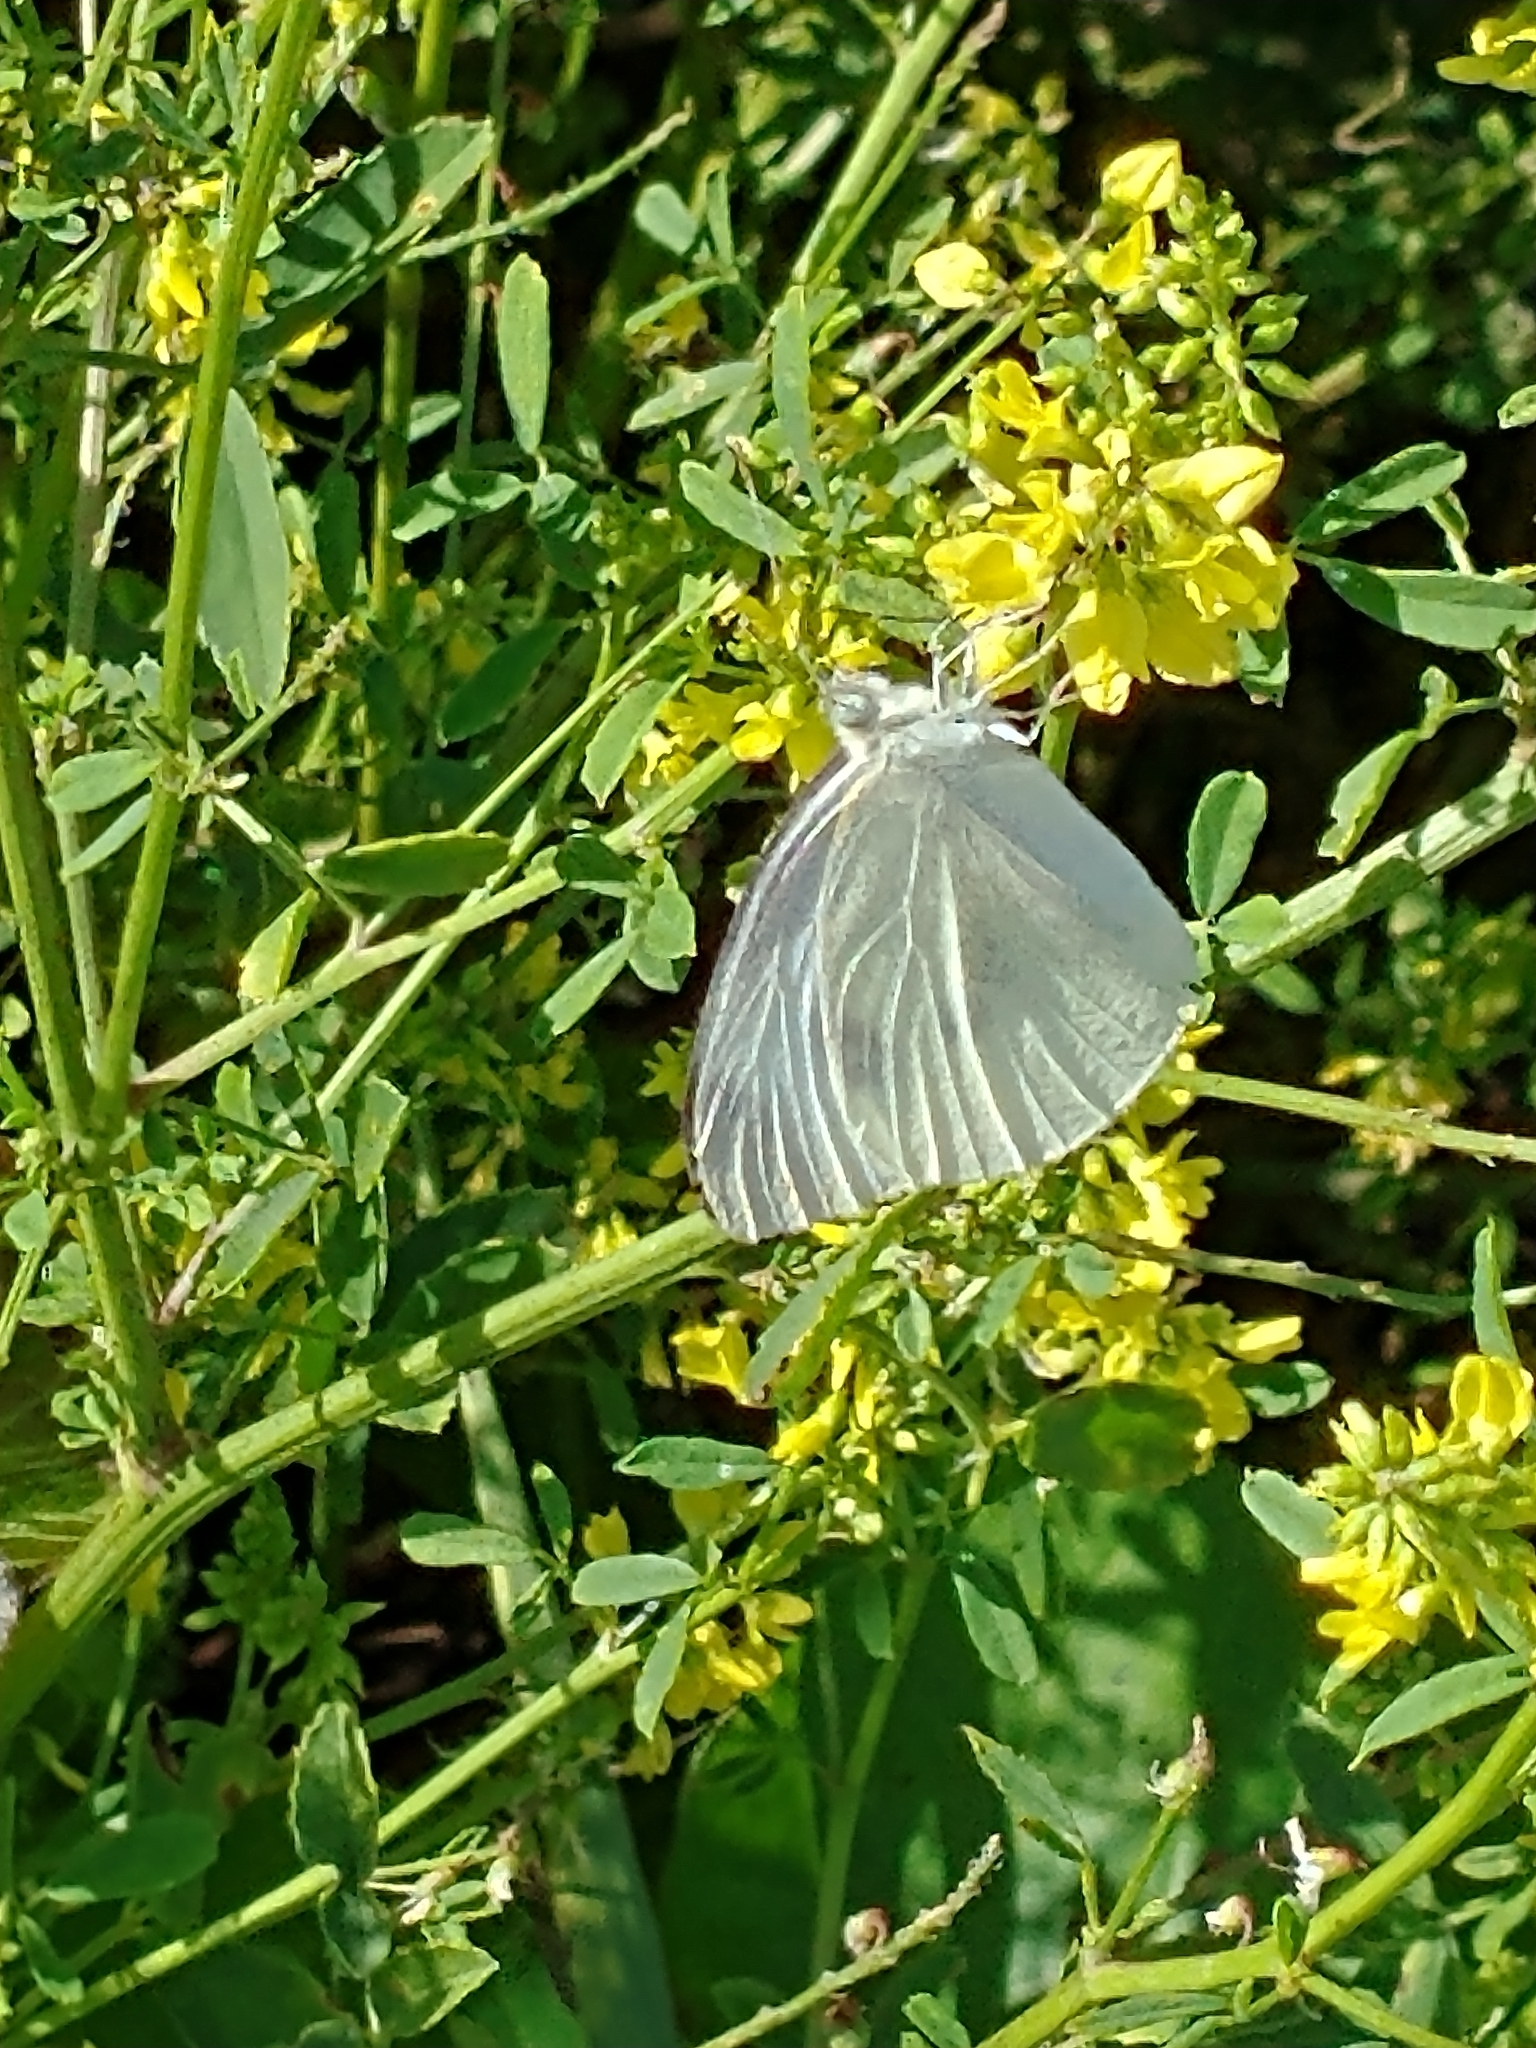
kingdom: Animalia
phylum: Arthropoda
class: Insecta
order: Lepidoptera
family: Pieridae
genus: Pieris
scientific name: Pieris rapae
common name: Small white
